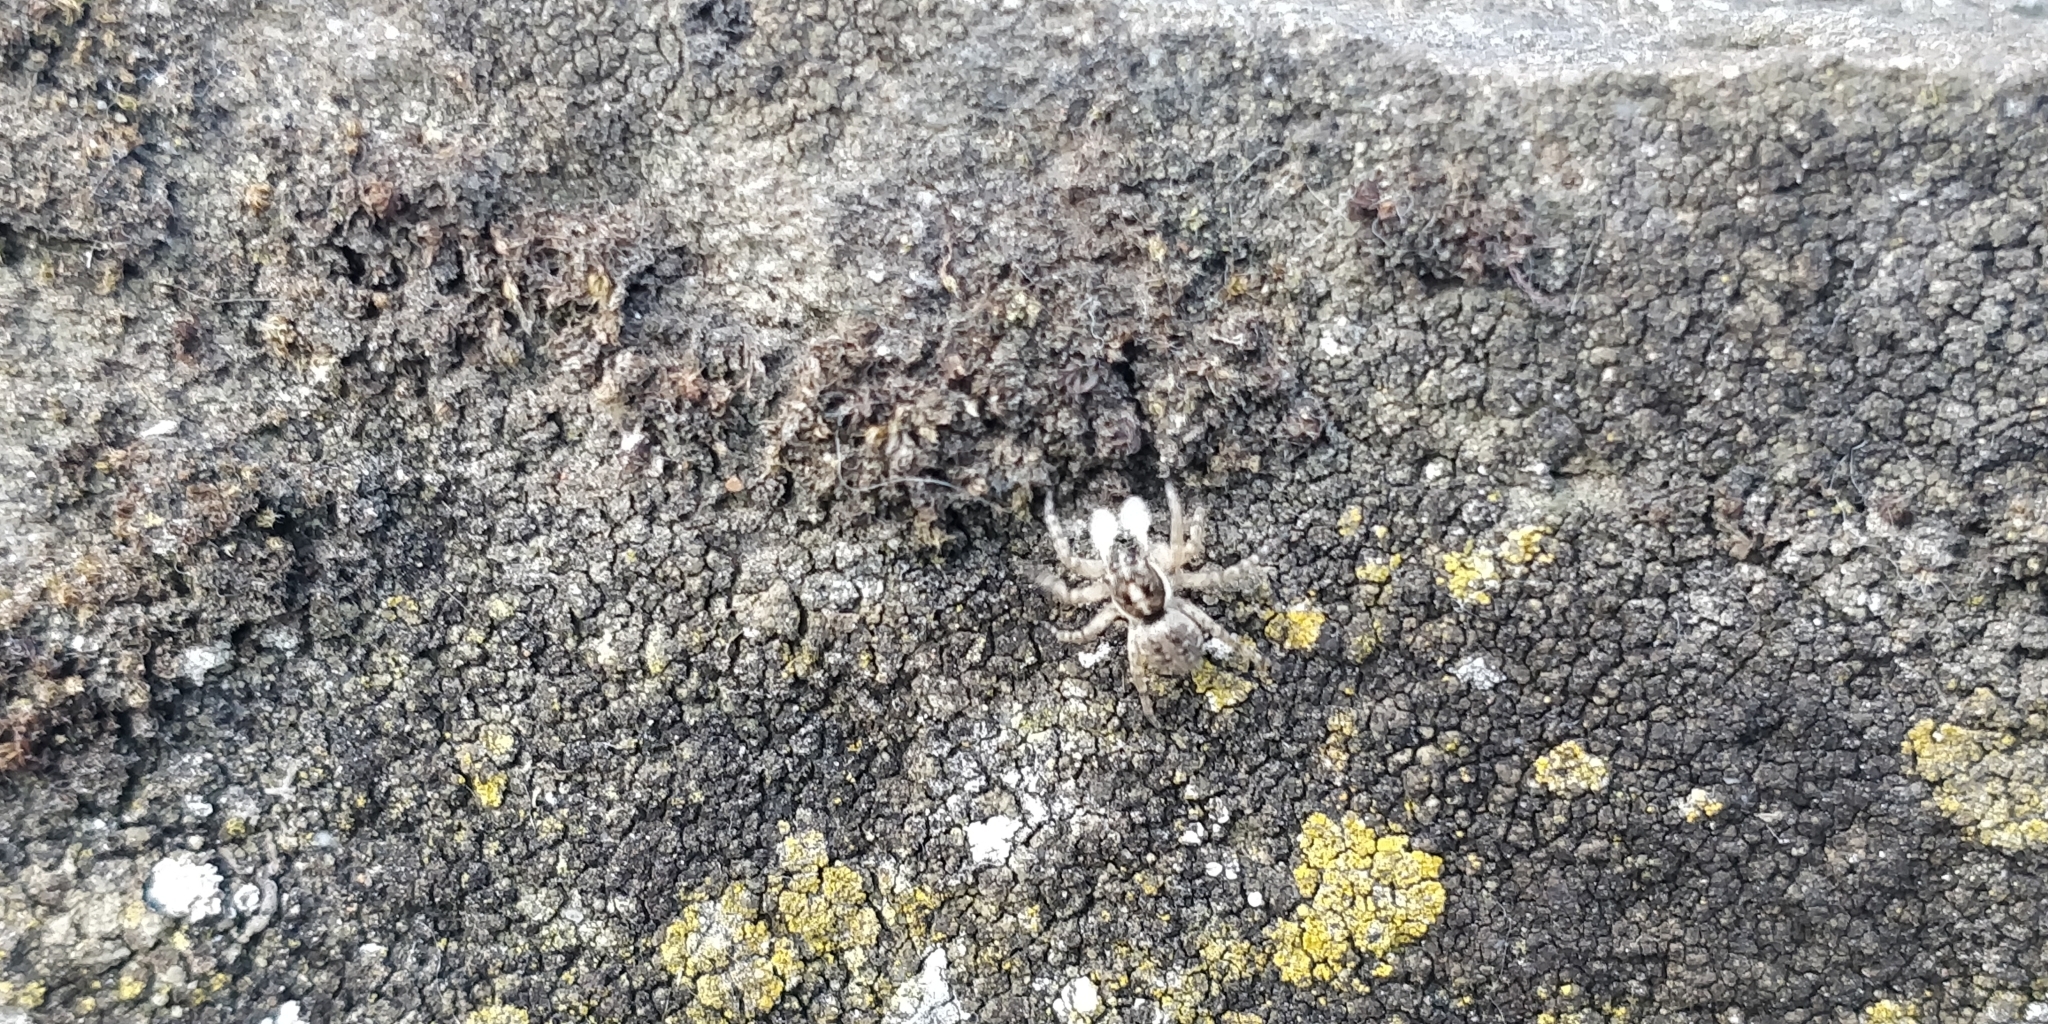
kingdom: Animalia
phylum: Arthropoda
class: Arachnida
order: Araneae
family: Salticidae
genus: Menemerus
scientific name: Menemerus semilimbatus
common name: Jumping spider
